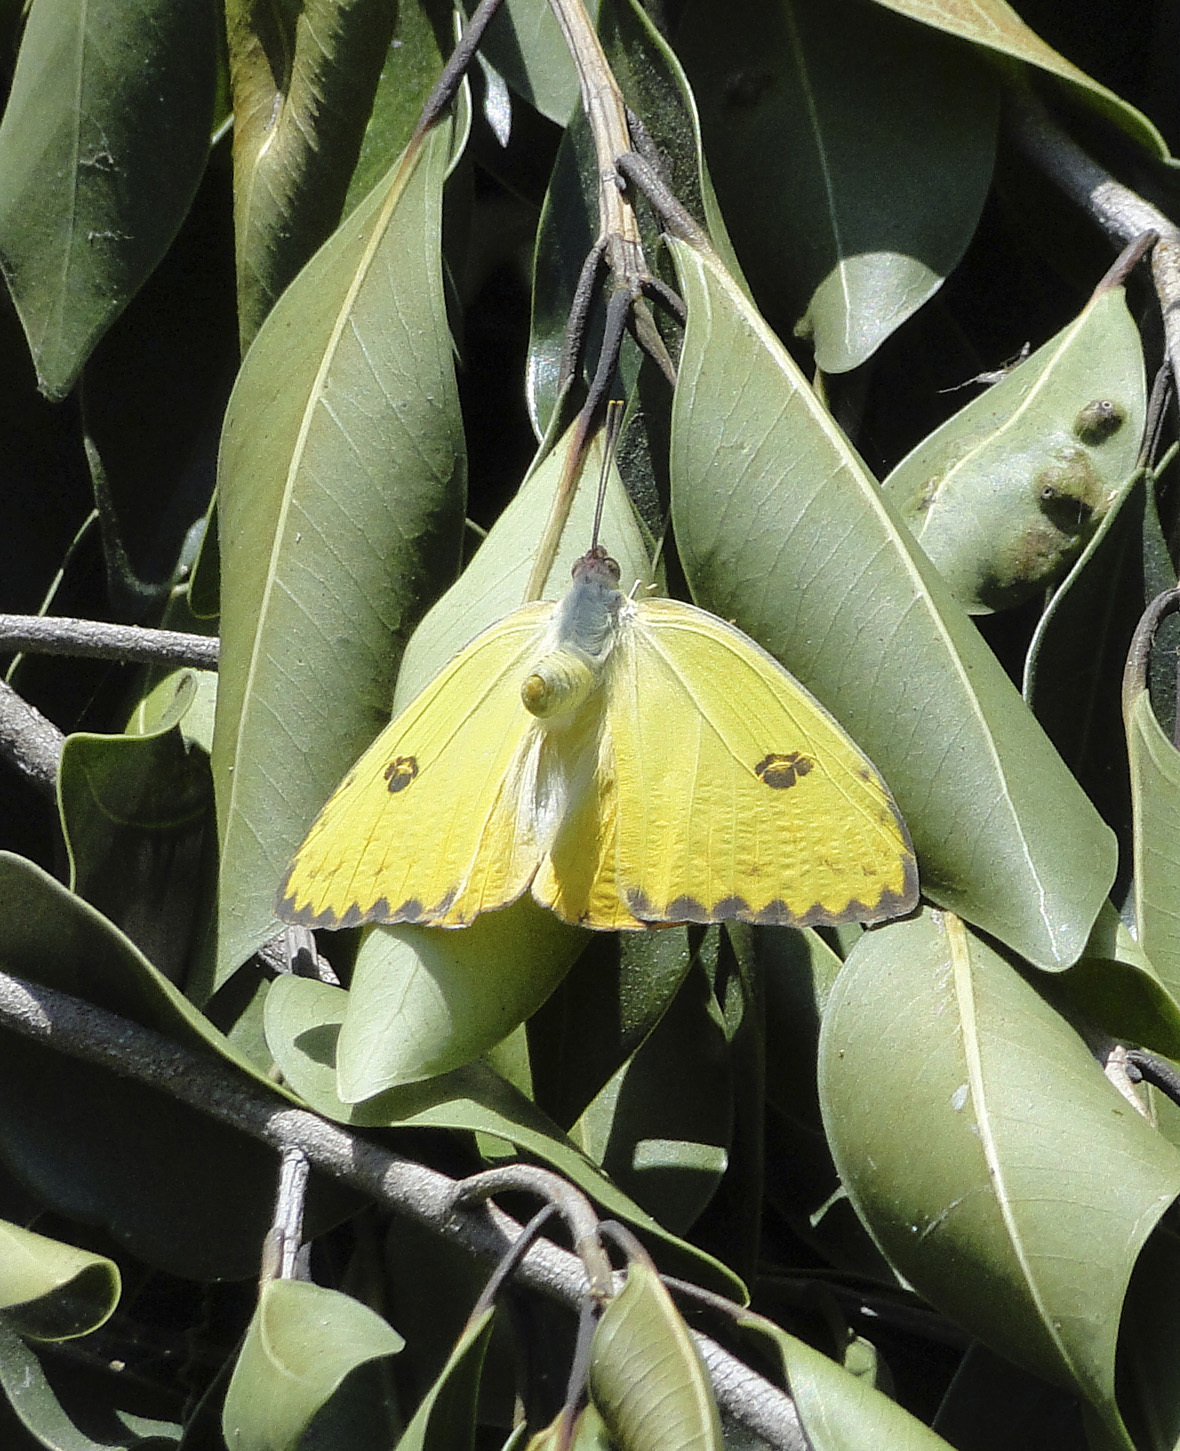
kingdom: Animalia
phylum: Arthropoda
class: Insecta
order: Lepidoptera
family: Pieridae
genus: Phoebis
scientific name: Phoebis sennae
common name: Cloudless sulphur
